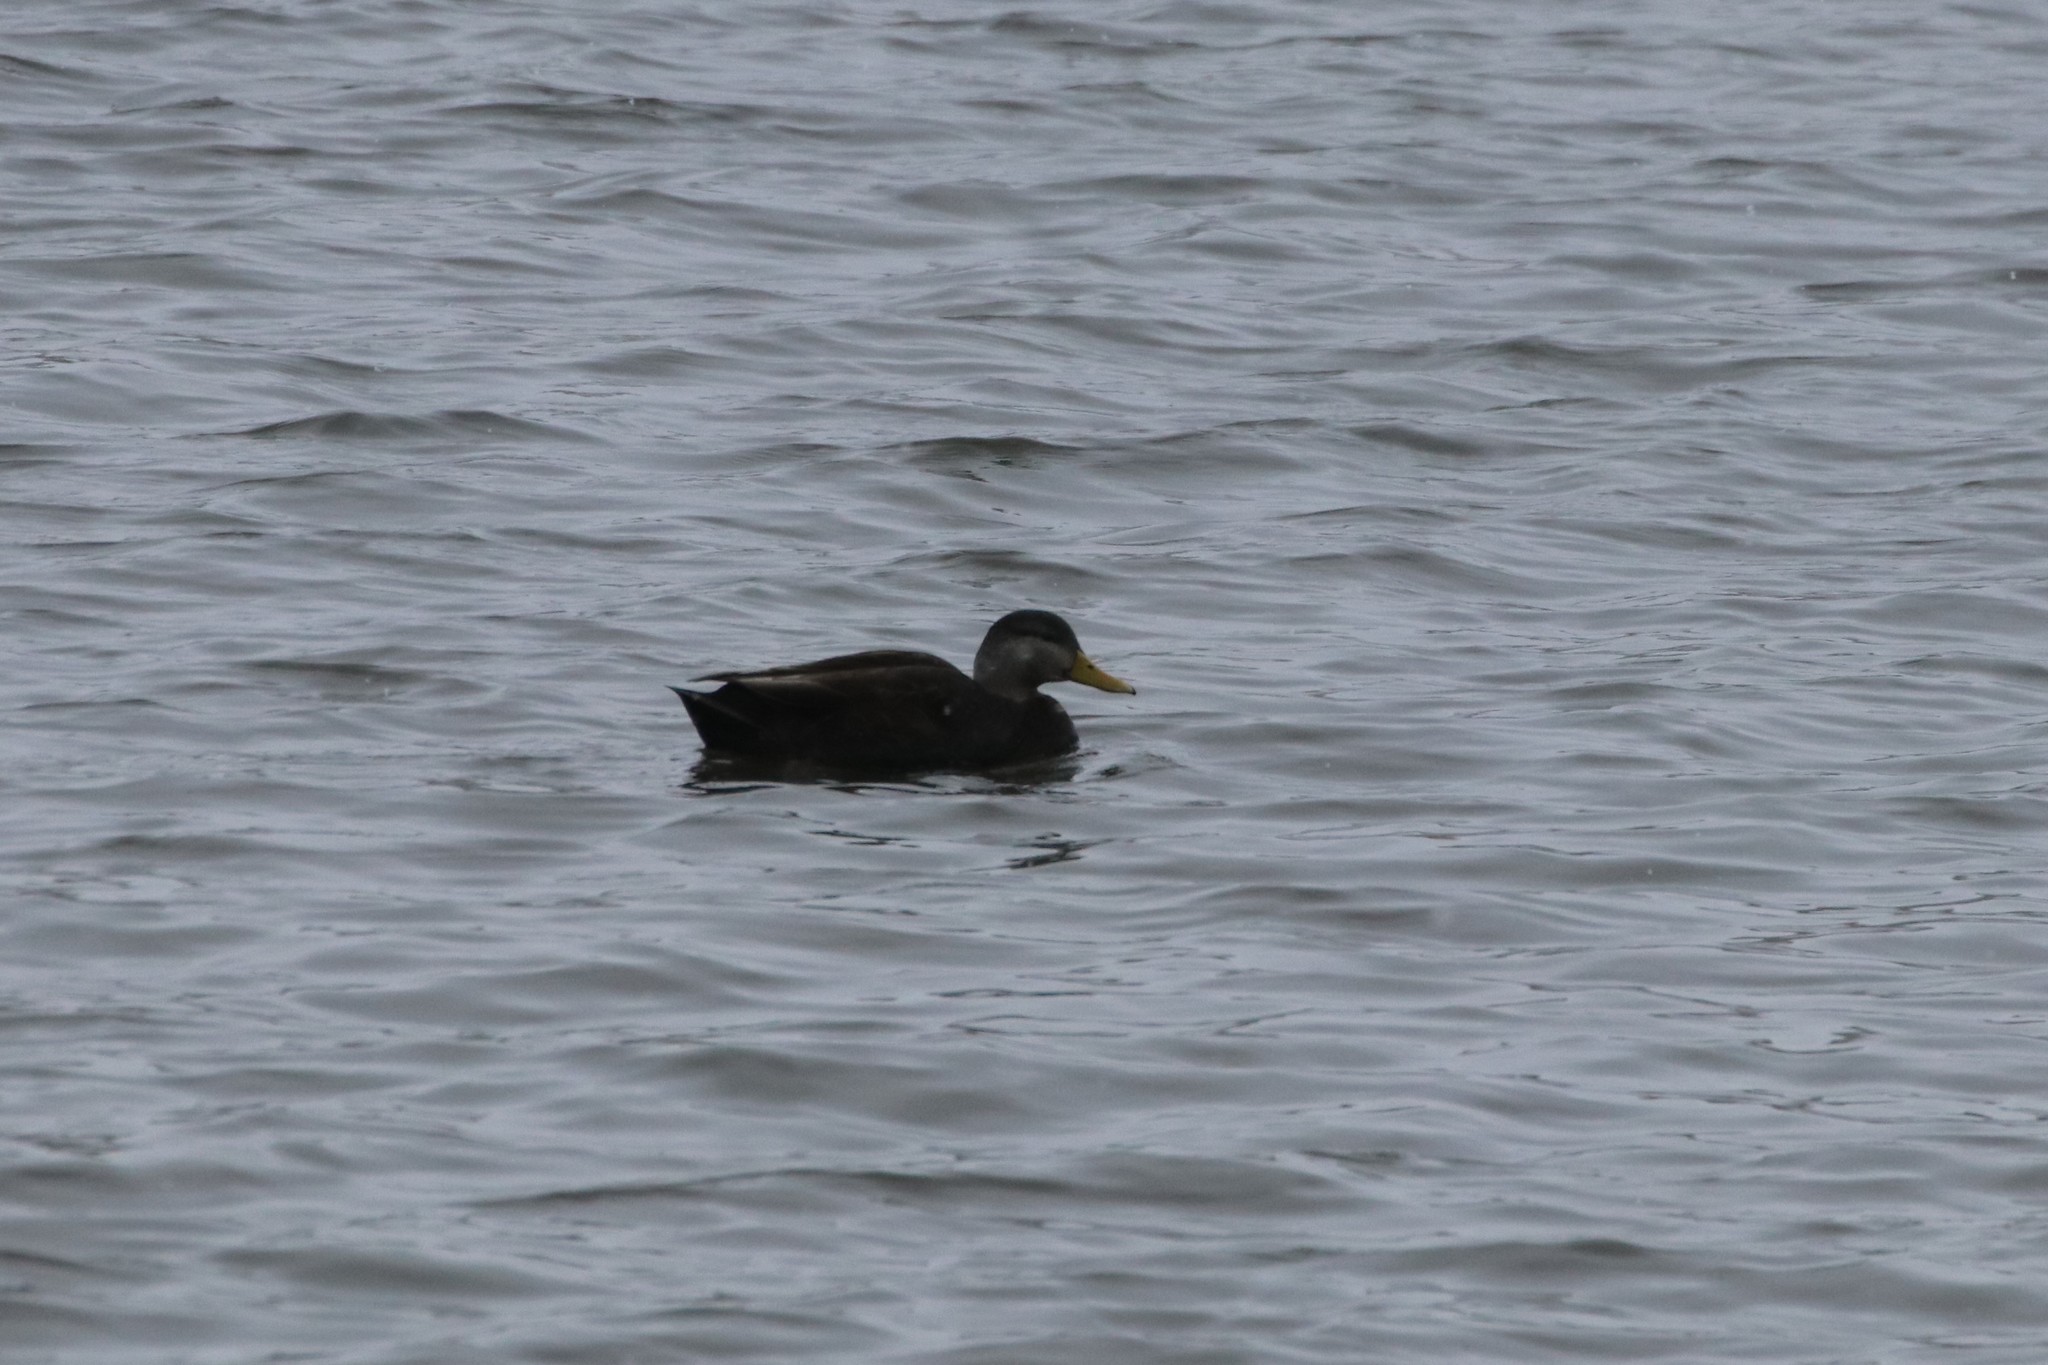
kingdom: Animalia
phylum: Chordata
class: Aves
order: Anseriformes
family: Anatidae
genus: Anas
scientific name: Anas rubripes
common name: American black duck
